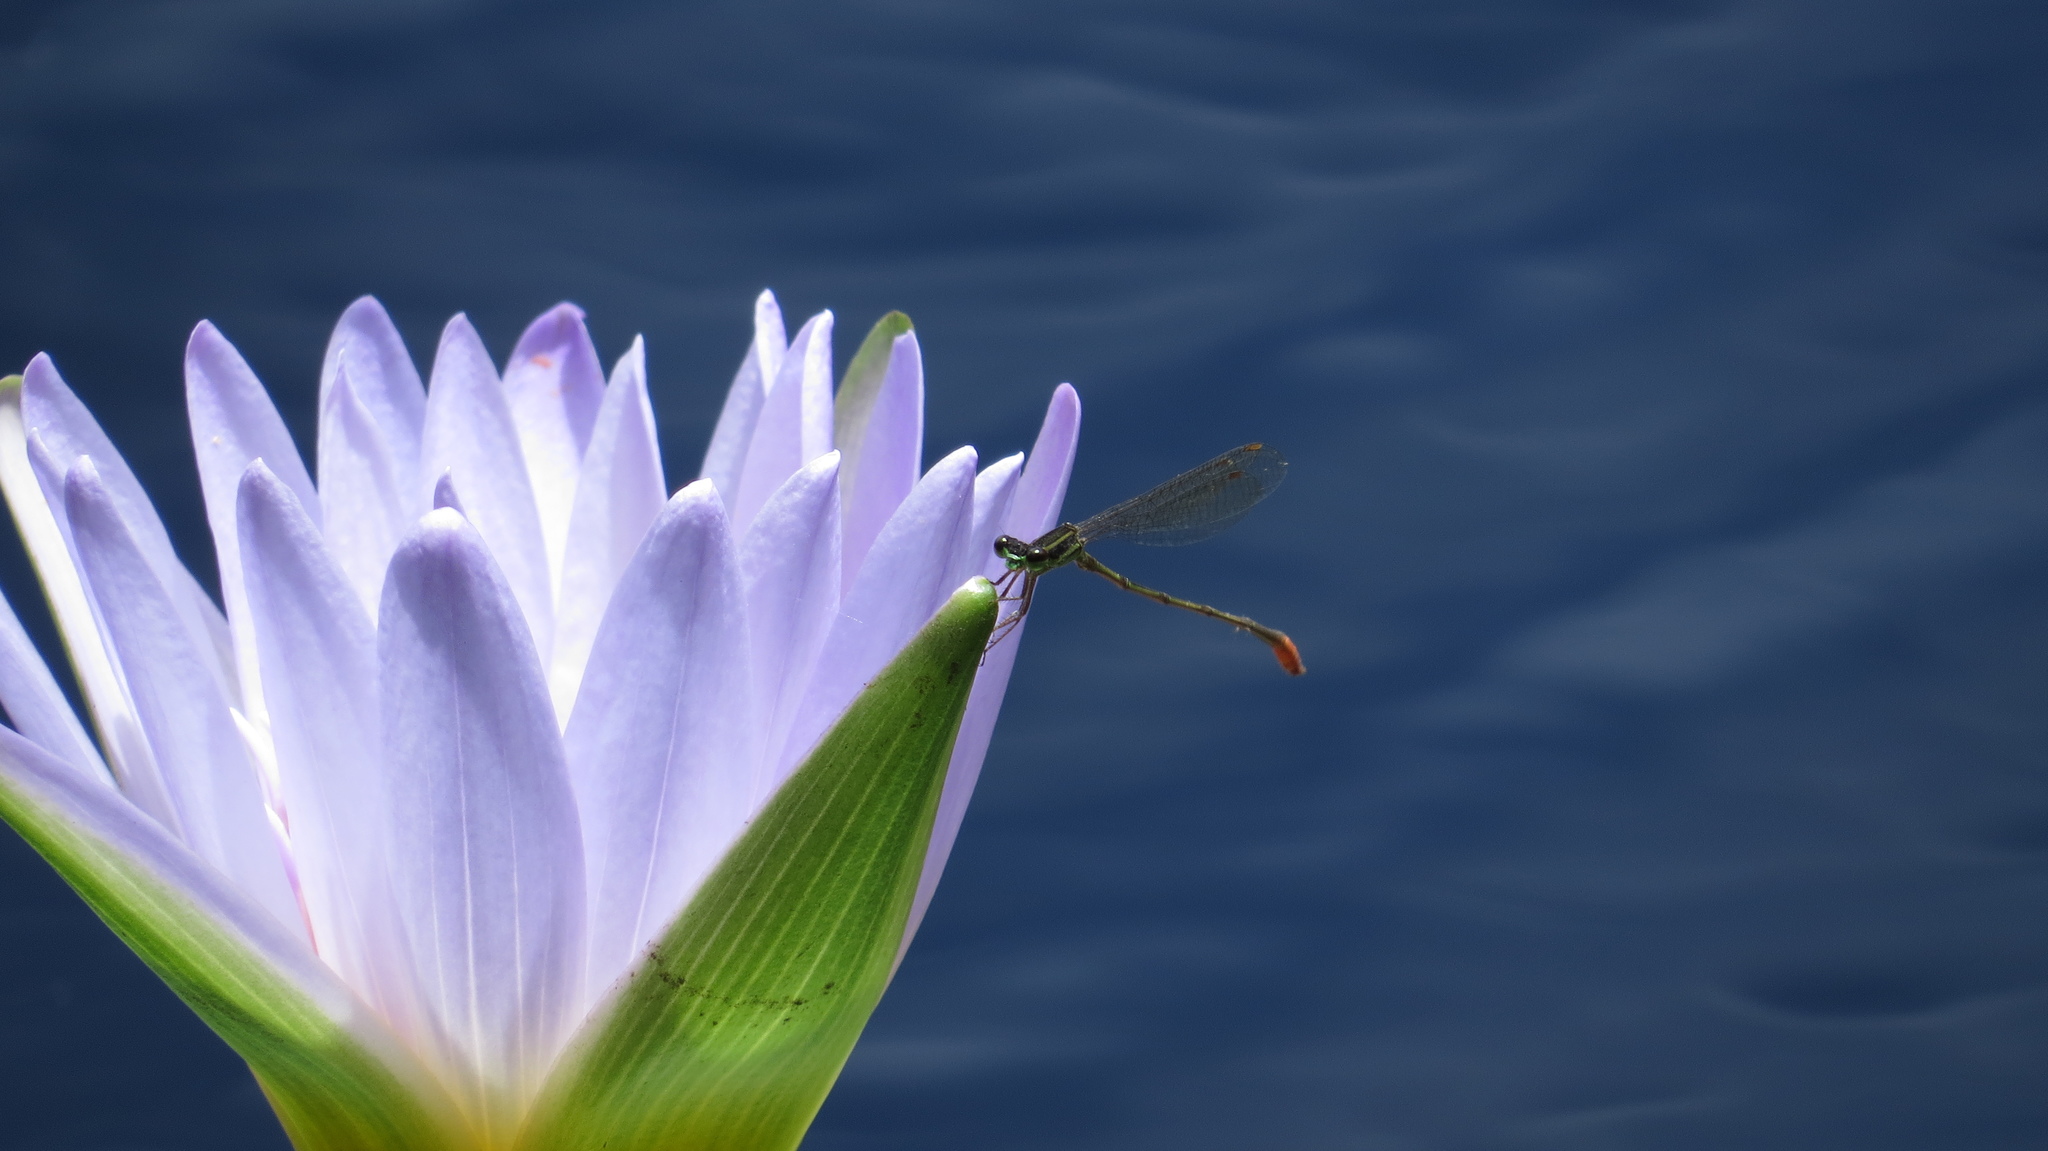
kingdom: Animalia
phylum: Arthropoda
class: Insecta
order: Odonata
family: Coenagrionidae
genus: Argiocnemis
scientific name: Argiocnemis rubescens
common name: Red-tipped shadefly
